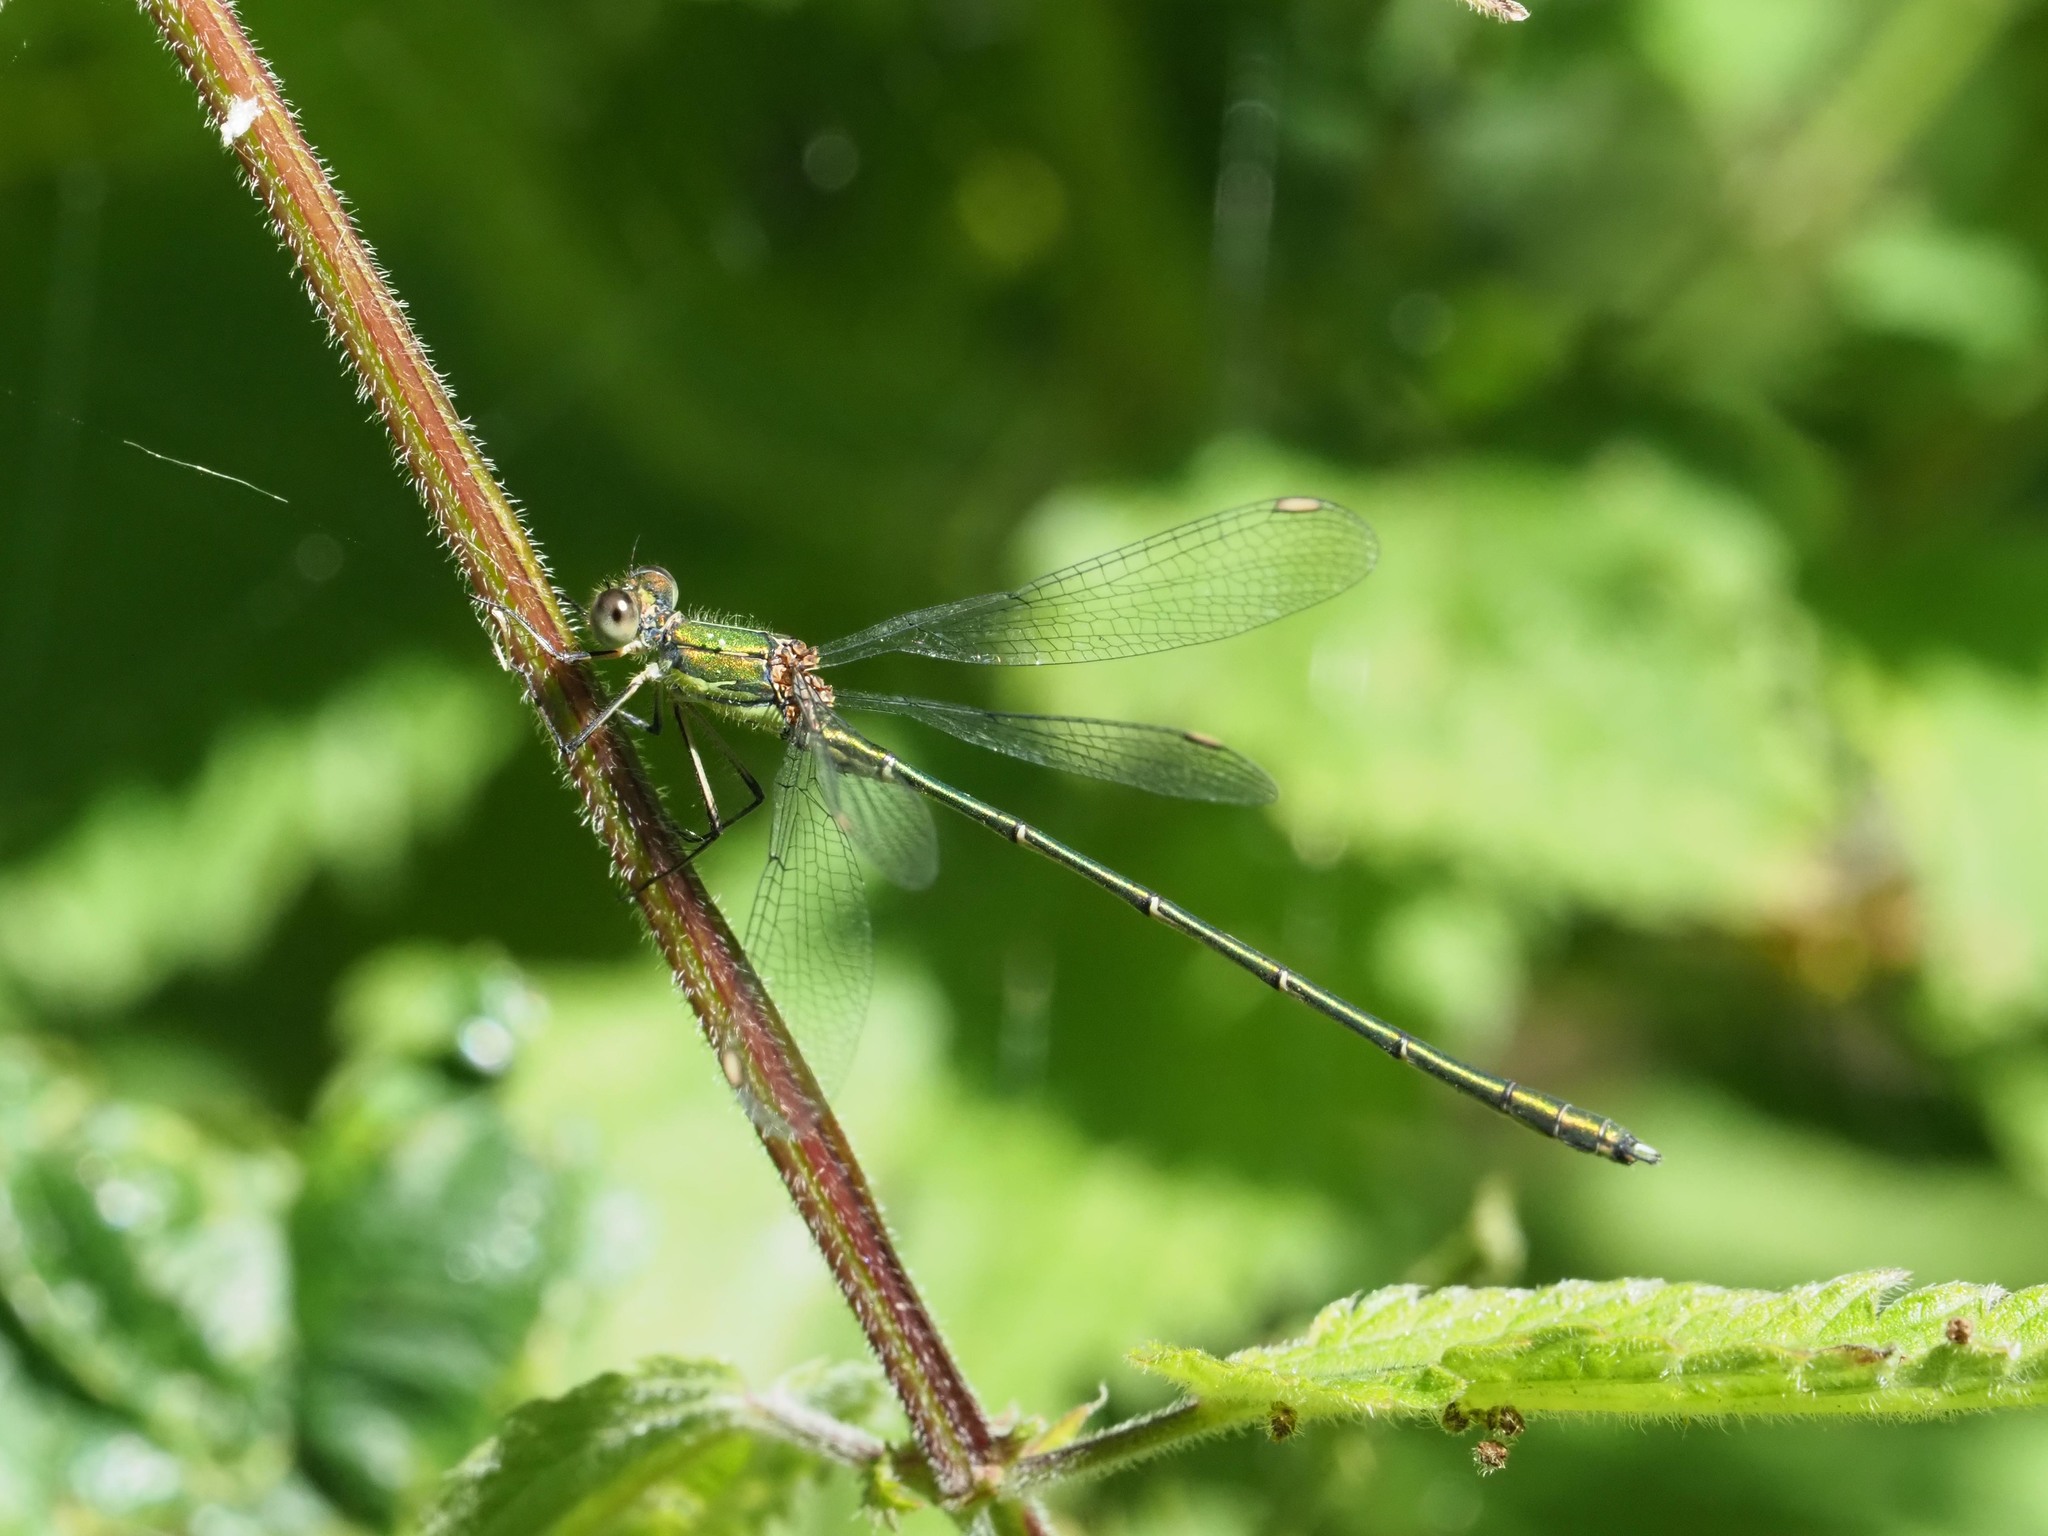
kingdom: Animalia
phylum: Arthropoda
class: Insecta
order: Odonata
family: Lestidae
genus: Chalcolestes
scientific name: Chalcolestes viridis
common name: Green emerald damselfly
